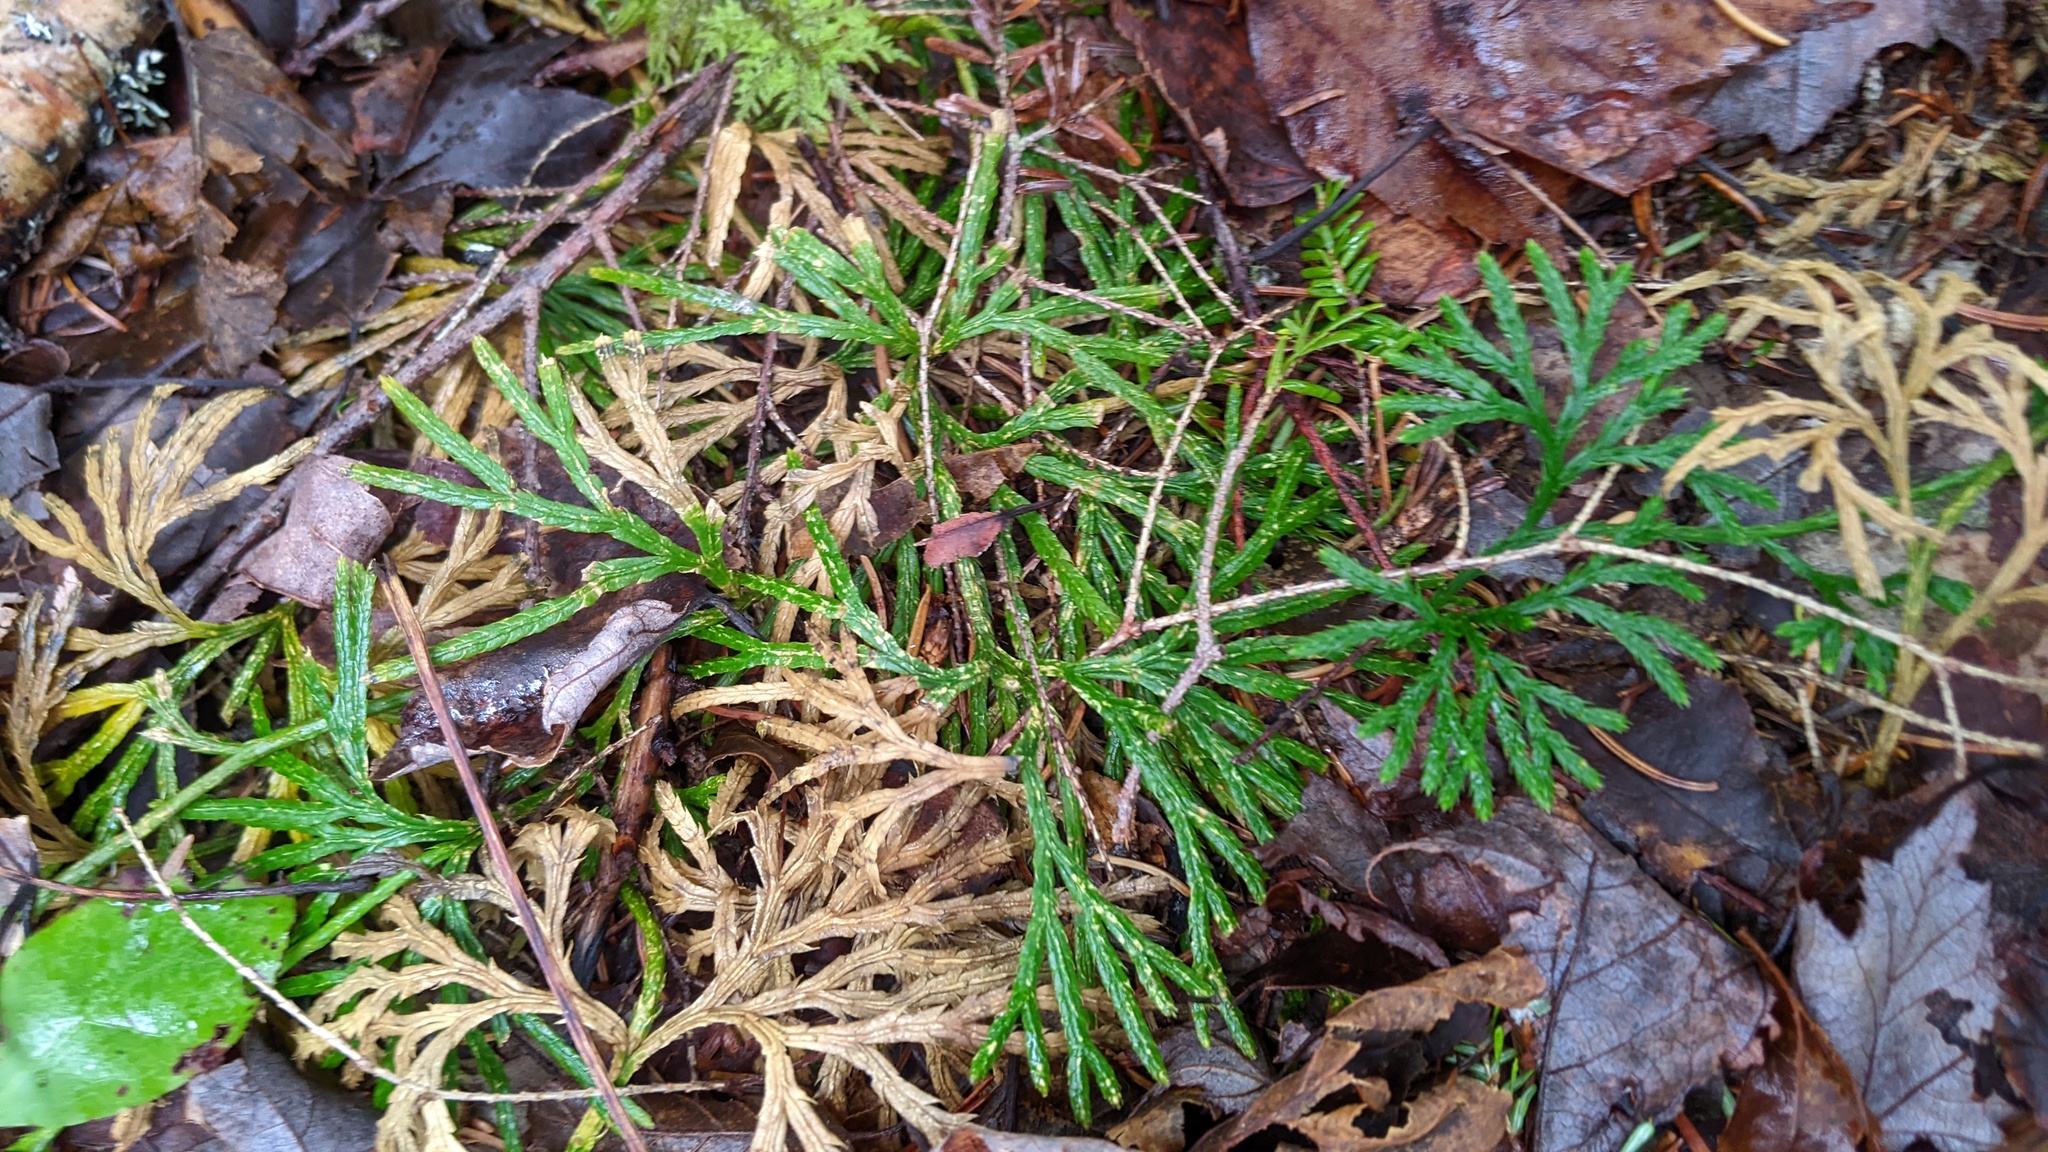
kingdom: Plantae
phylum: Tracheophyta
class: Lycopodiopsida
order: Lycopodiales
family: Lycopodiaceae
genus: Diphasiastrum
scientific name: Diphasiastrum digitatum
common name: Southern running-pine
